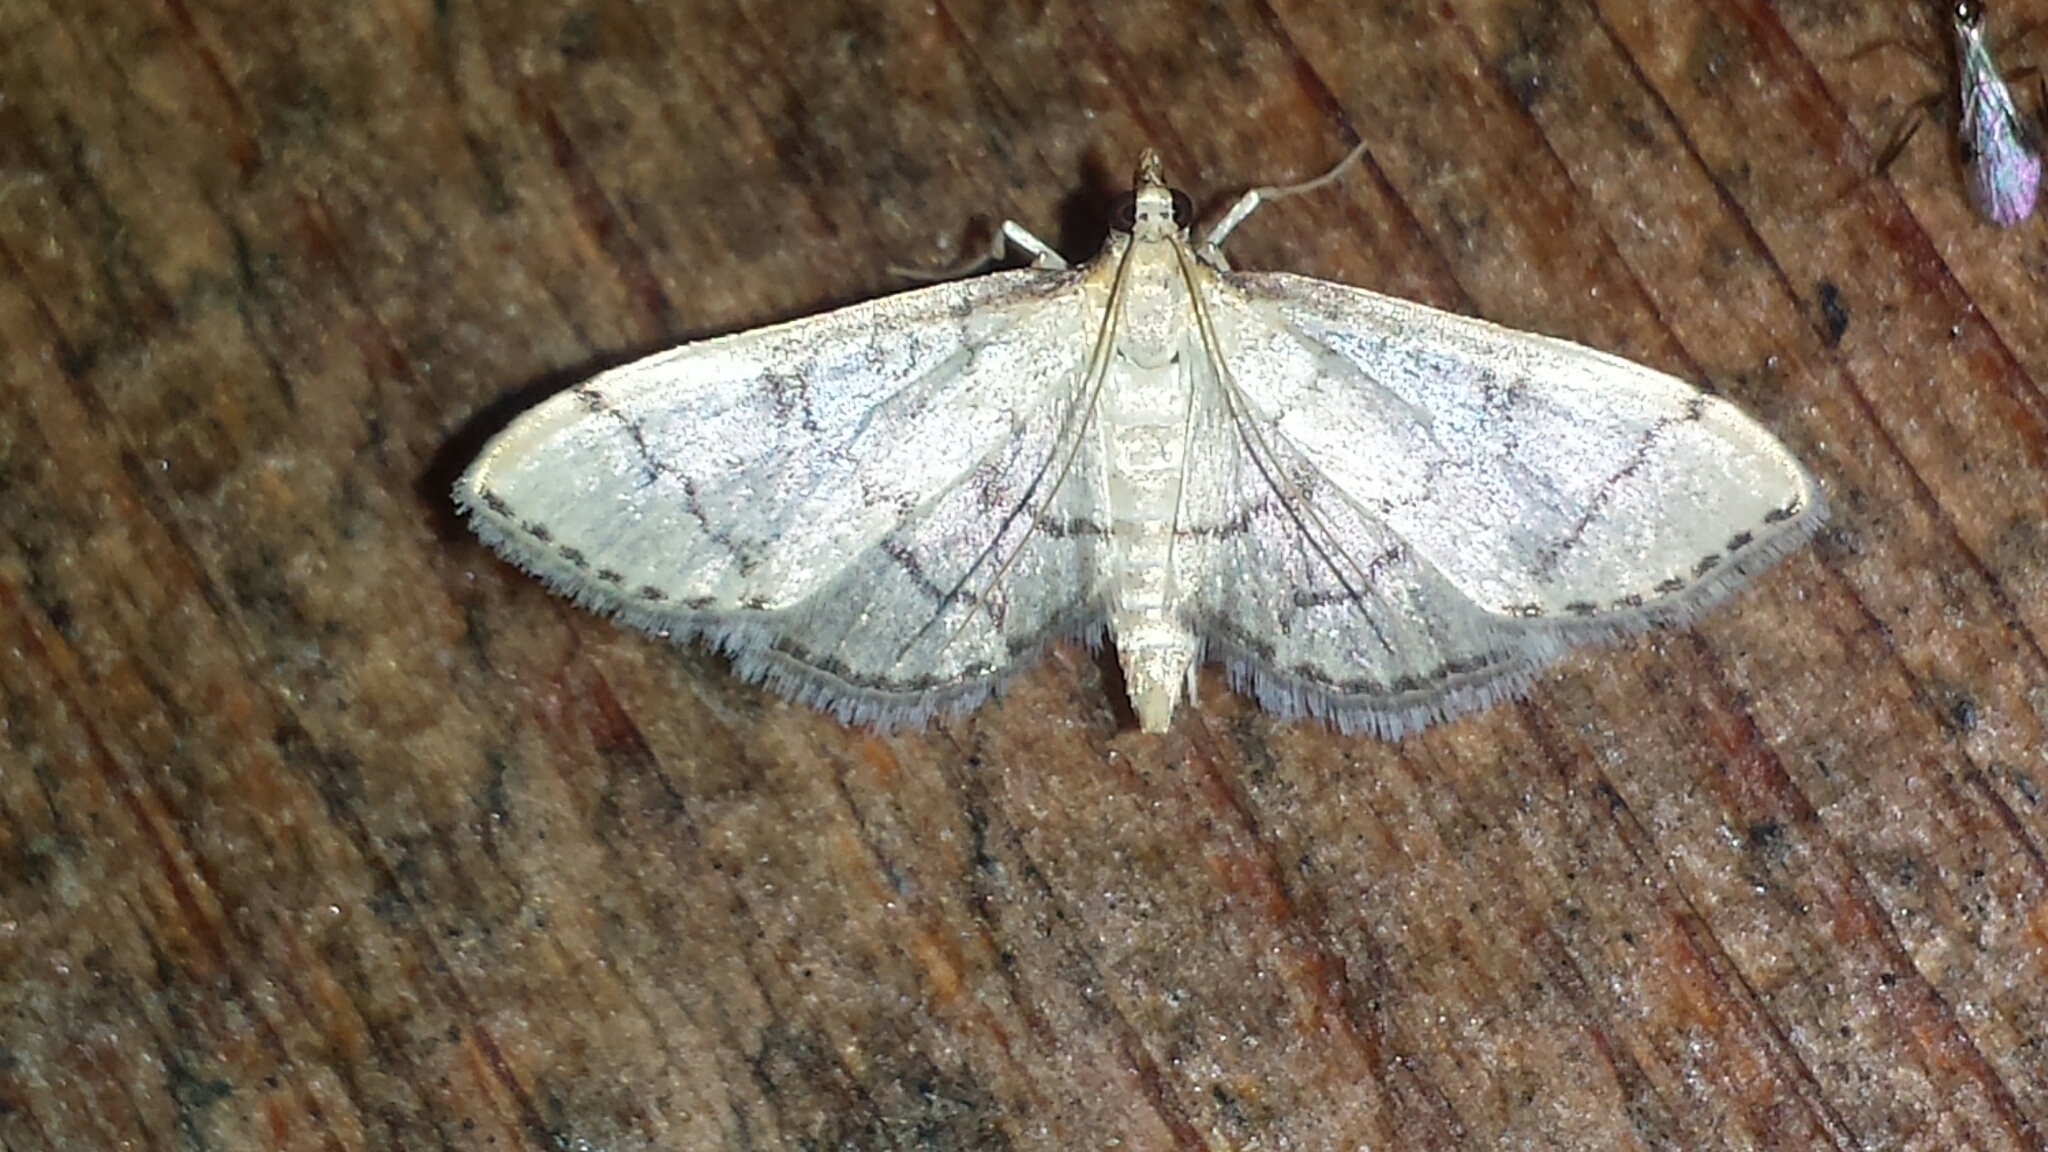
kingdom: Animalia
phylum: Arthropoda
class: Insecta
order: Lepidoptera
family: Crambidae
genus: Lamprosema
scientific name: Lamprosema Blepharomastix ranalis
